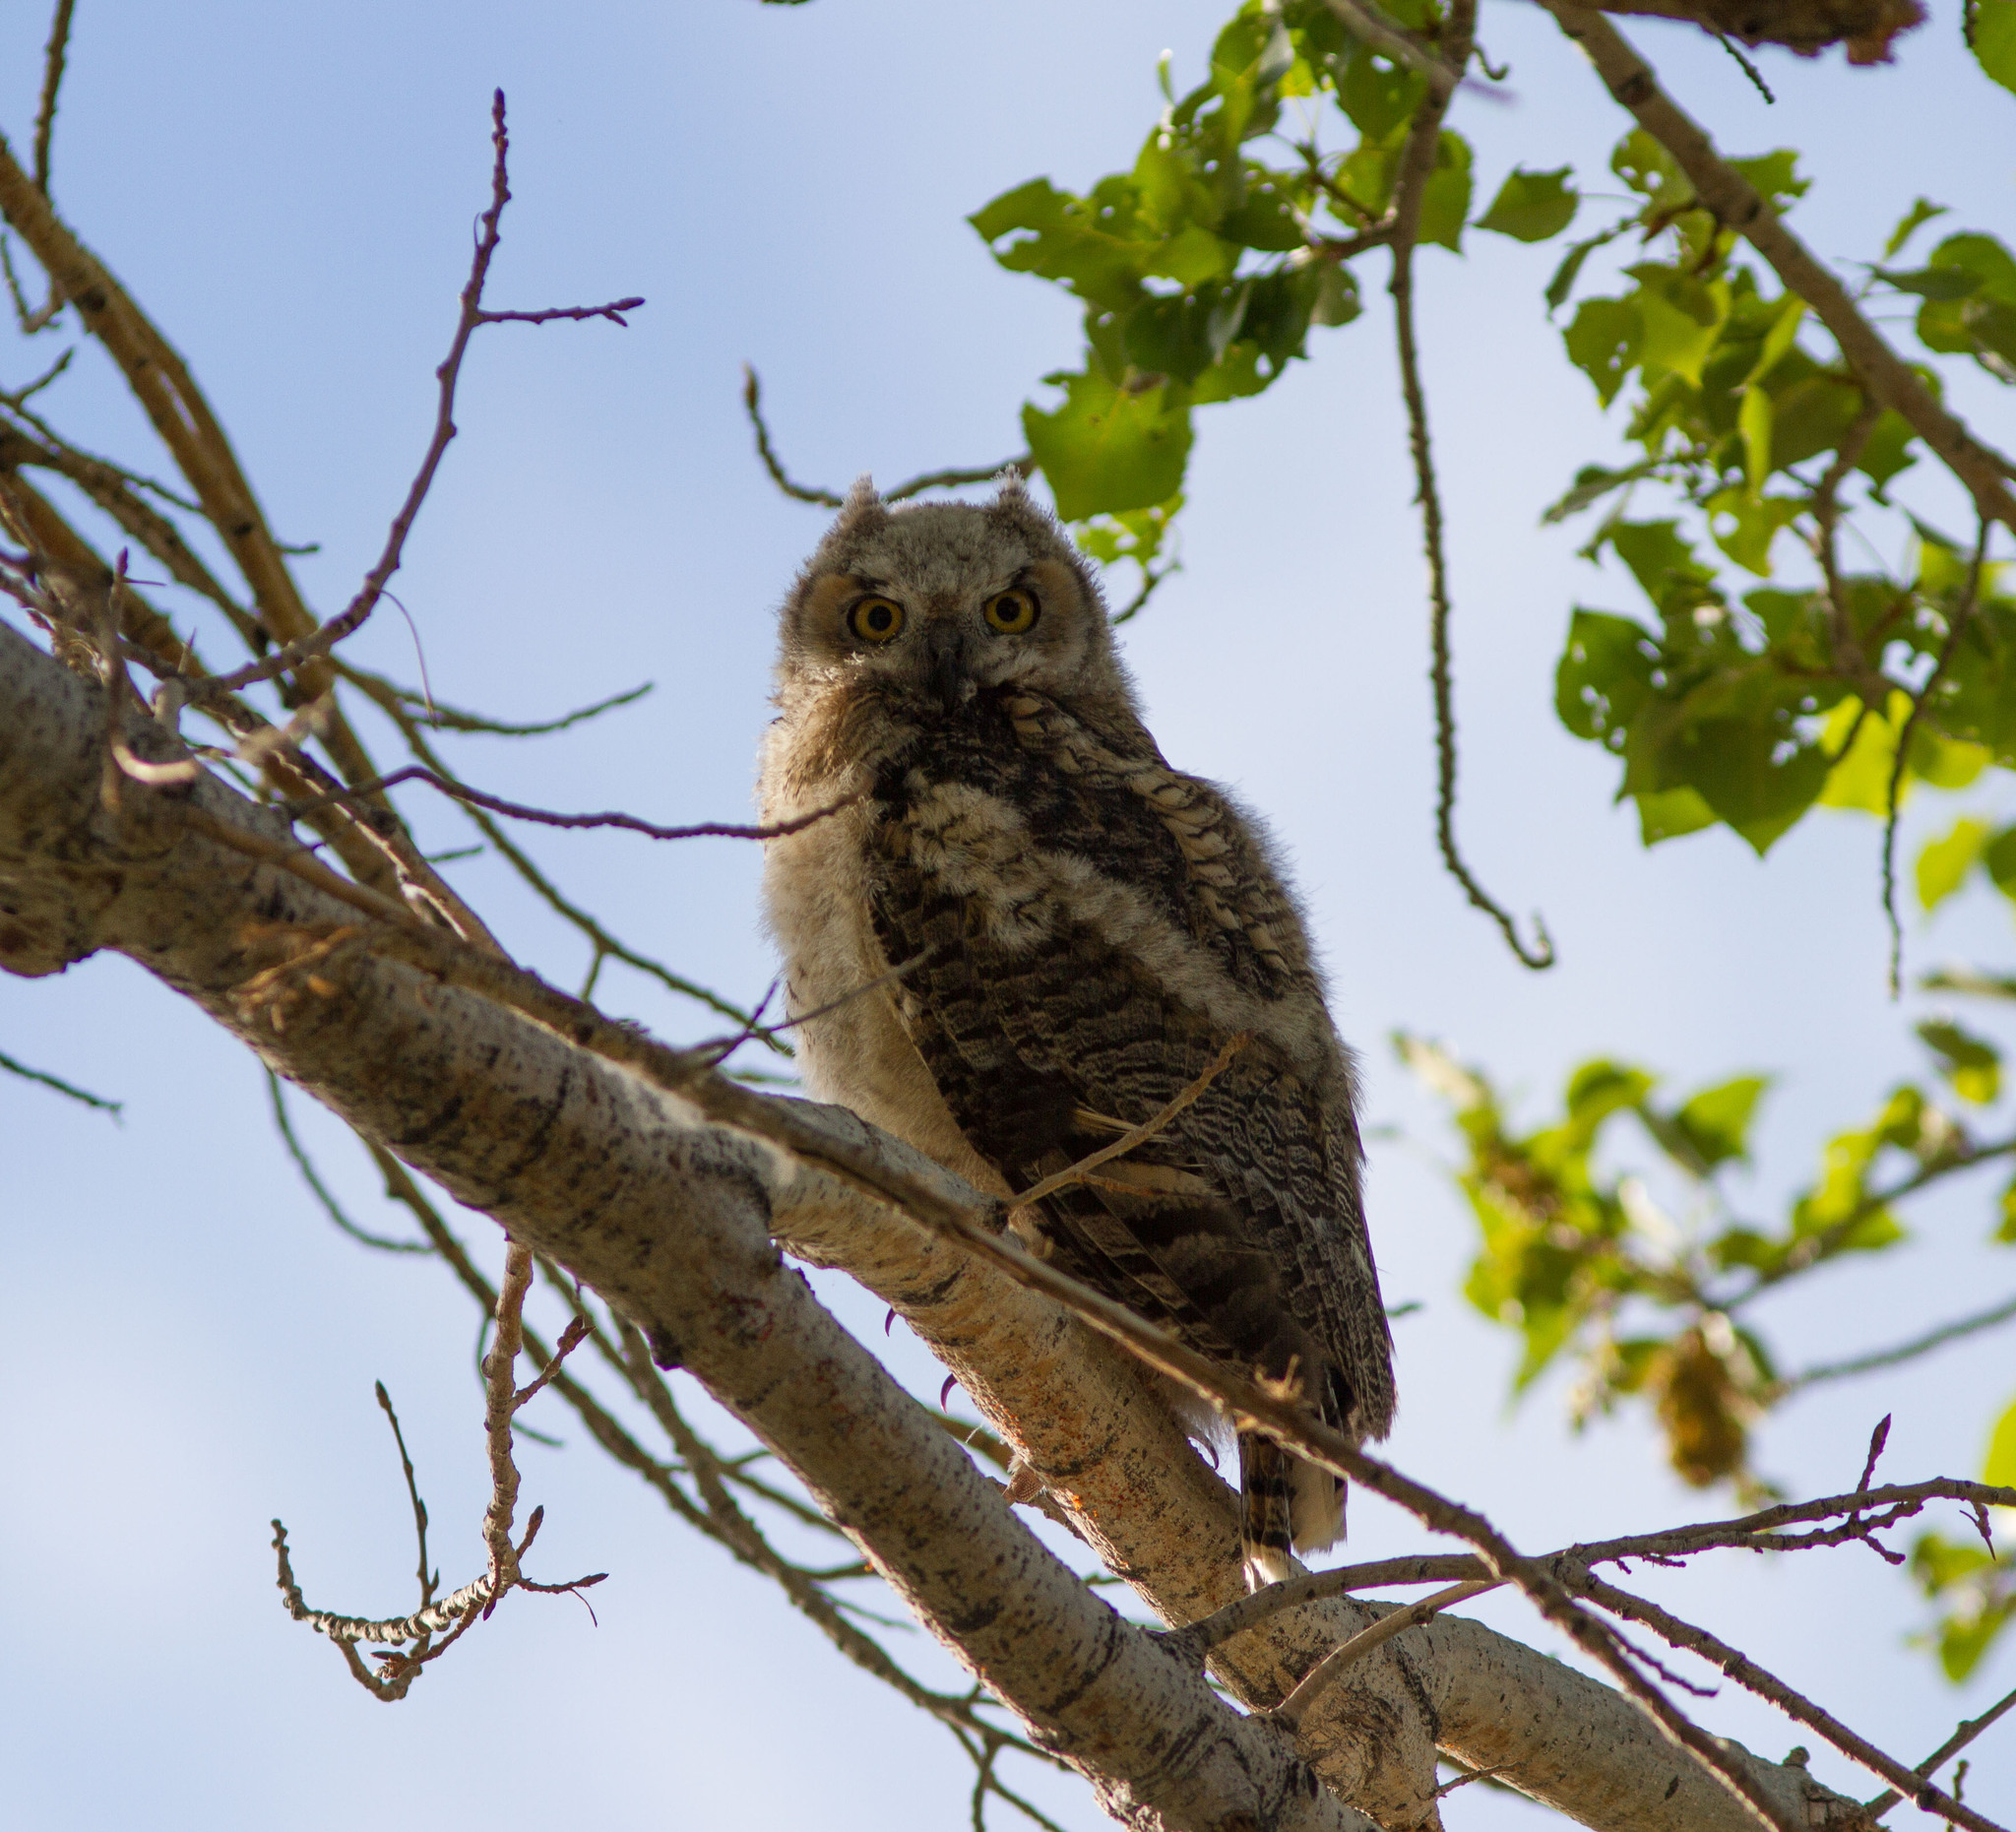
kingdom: Animalia
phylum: Chordata
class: Aves
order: Strigiformes
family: Strigidae
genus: Bubo
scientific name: Bubo virginianus
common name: Great horned owl
